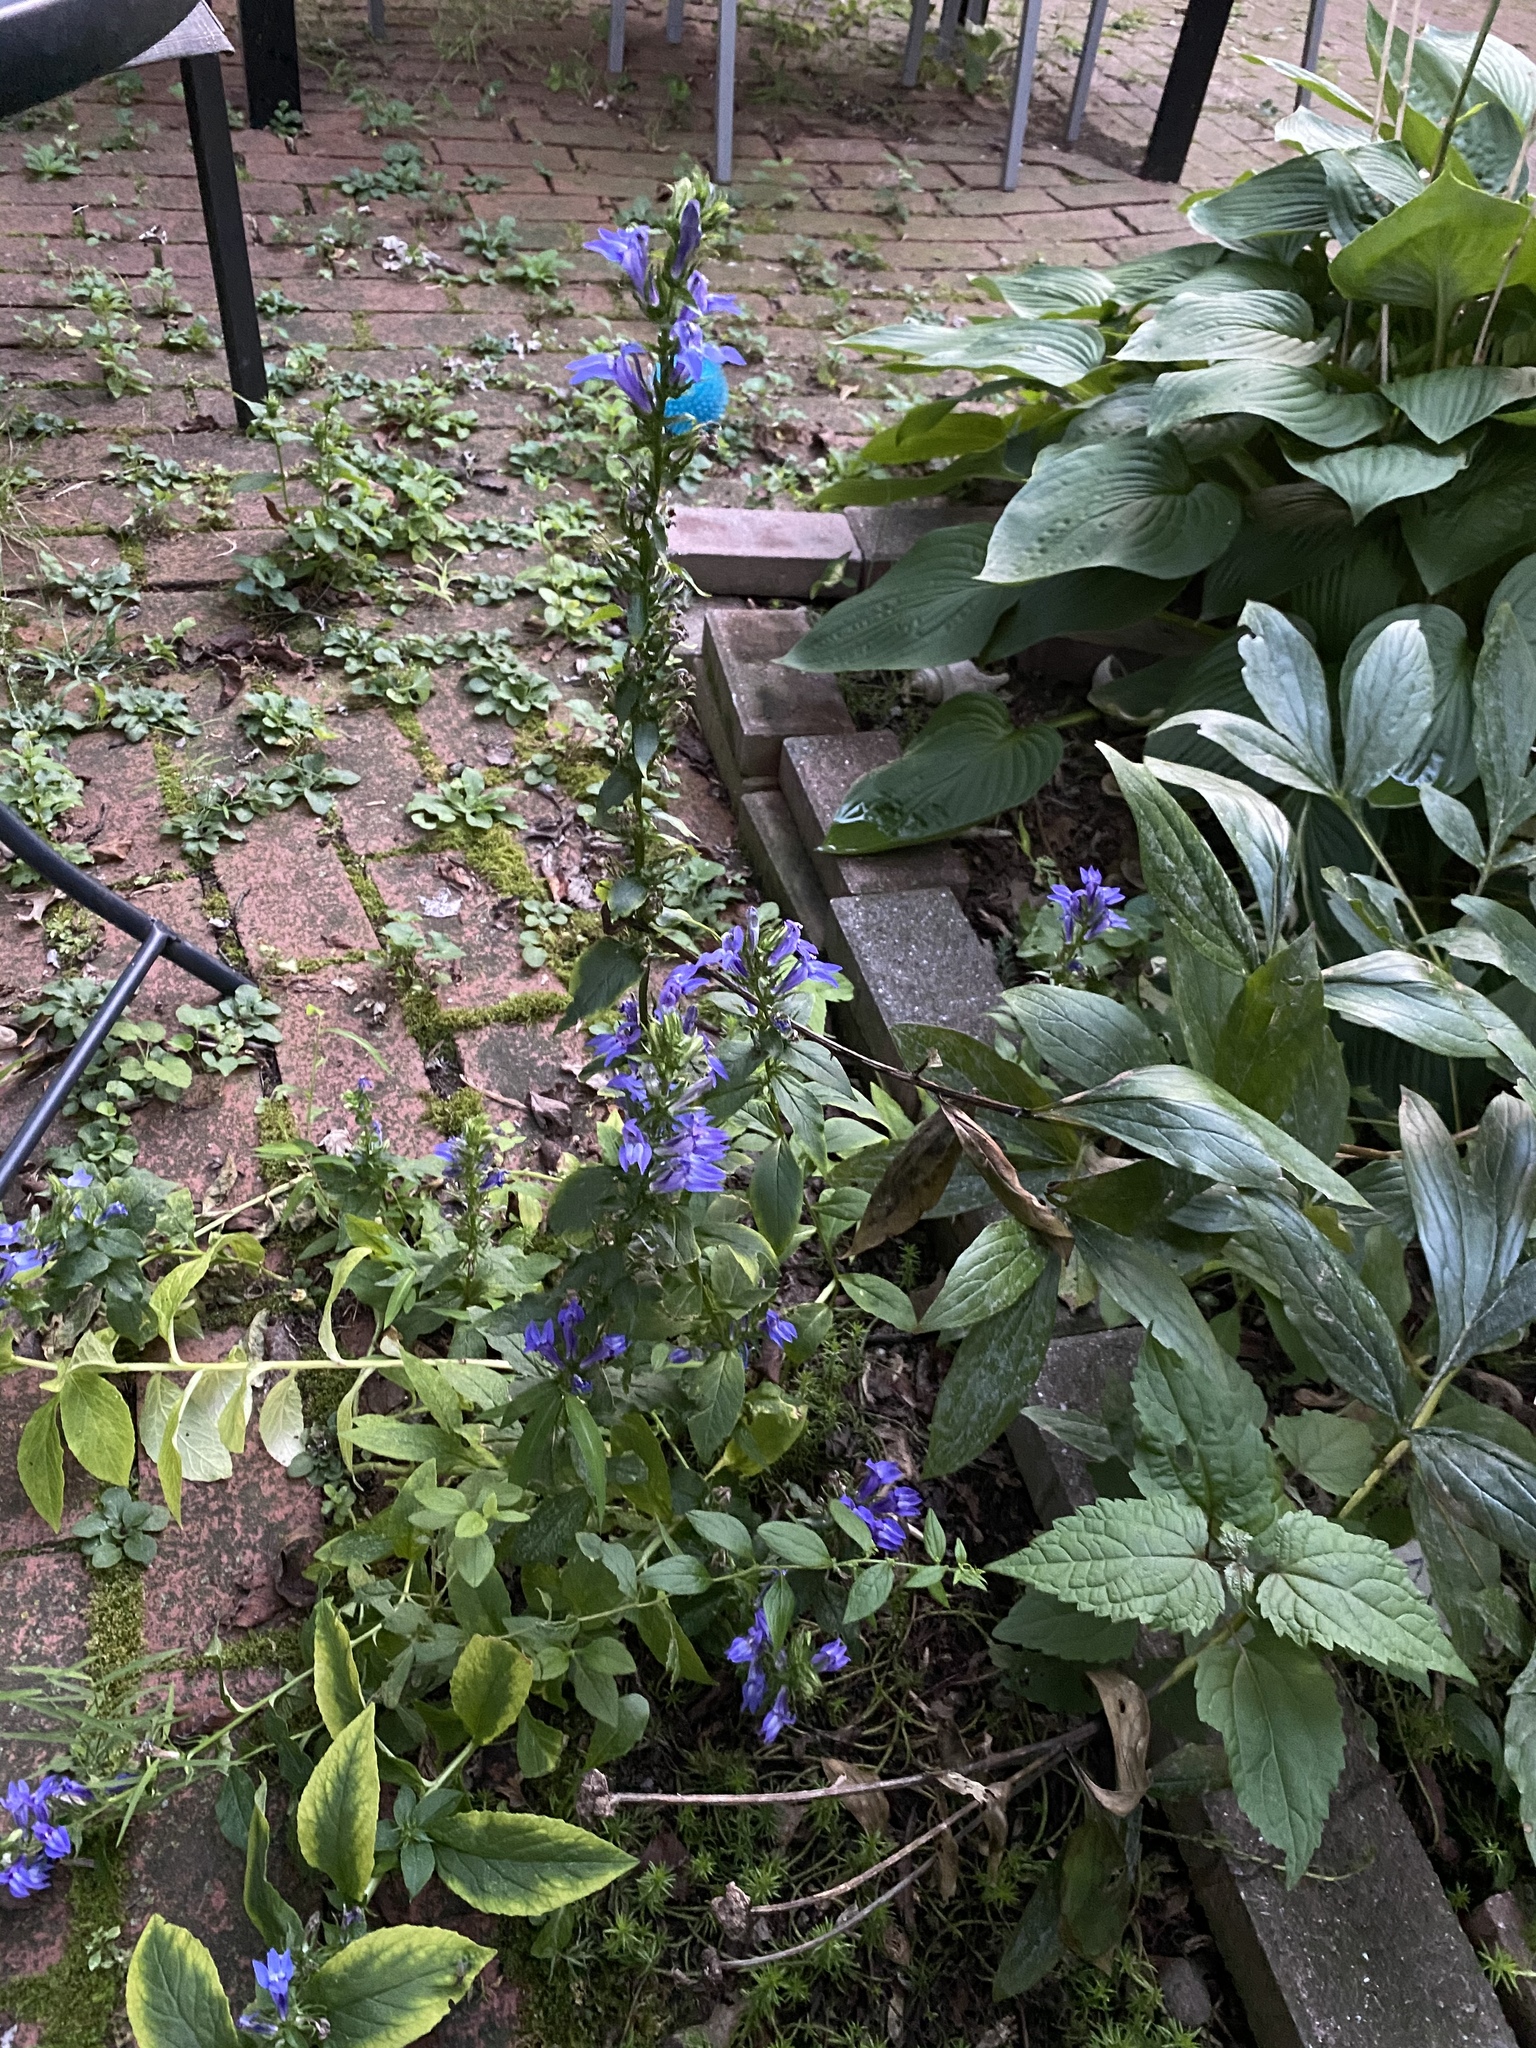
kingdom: Plantae
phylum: Tracheophyta
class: Magnoliopsida
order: Asterales
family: Campanulaceae
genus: Lobelia
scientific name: Lobelia siphilitica
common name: Great lobelia
